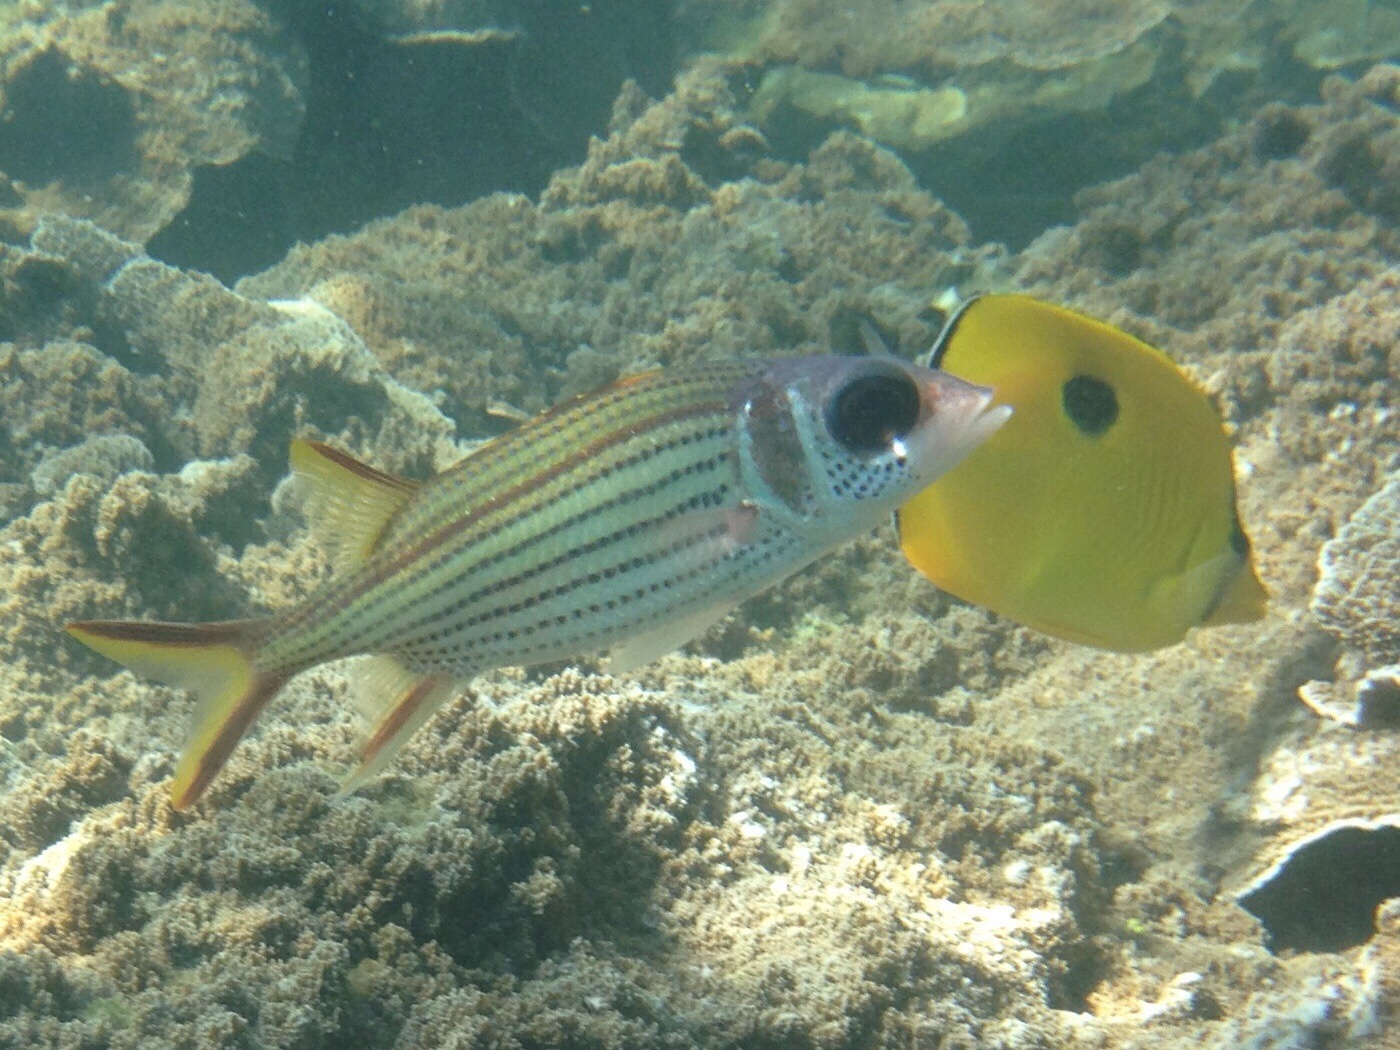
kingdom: Animalia
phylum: Chordata
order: Beryciformes
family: Holocentridae
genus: Neoniphon
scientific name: Neoniphon sammara
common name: Sammara squirrelfish
